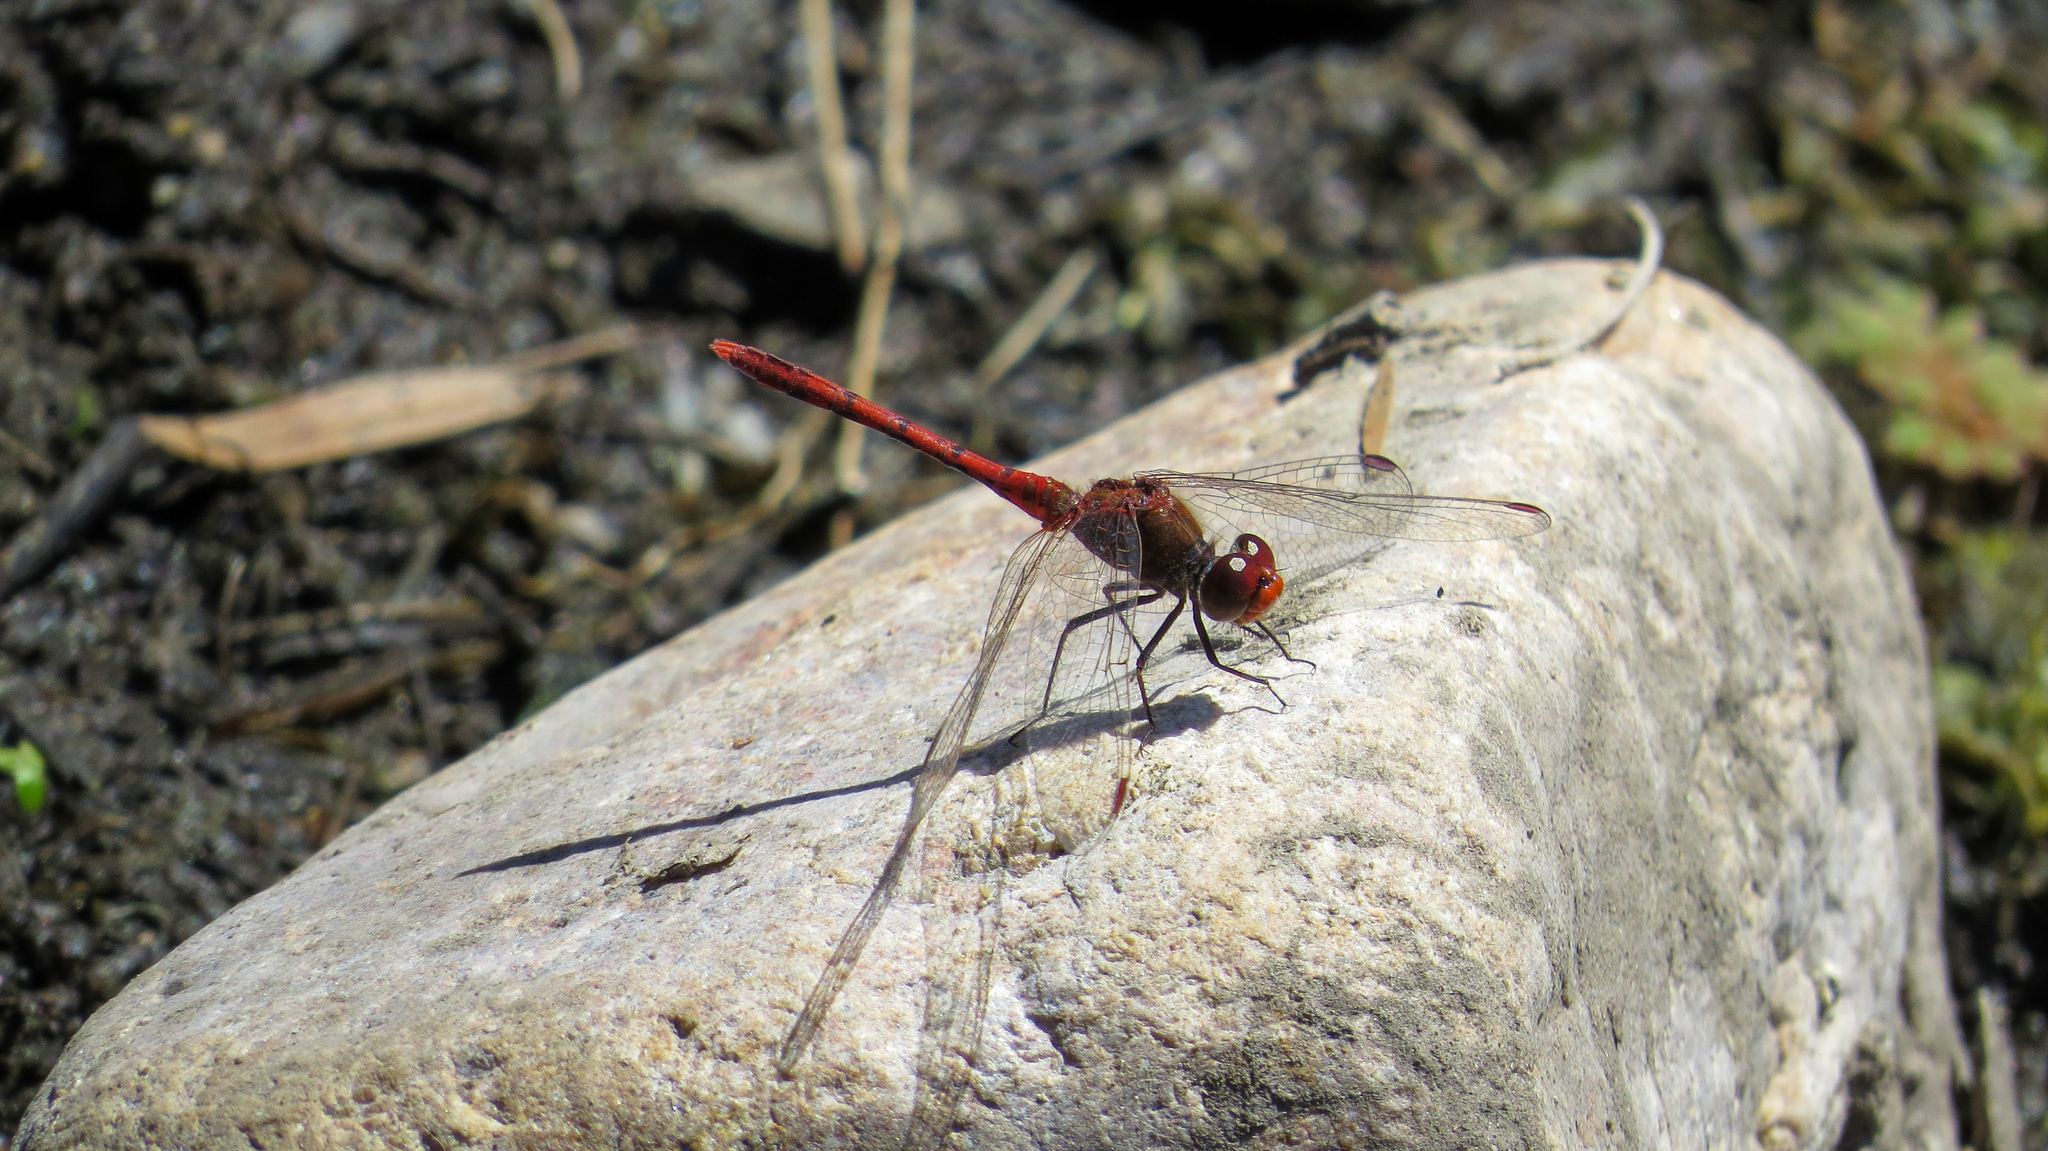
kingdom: Animalia
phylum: Arthropoda
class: Insecta
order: Odonata
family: Libellulidae
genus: Diplacodes
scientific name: Diplacodes bipunctata
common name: Red percher dragonfly
